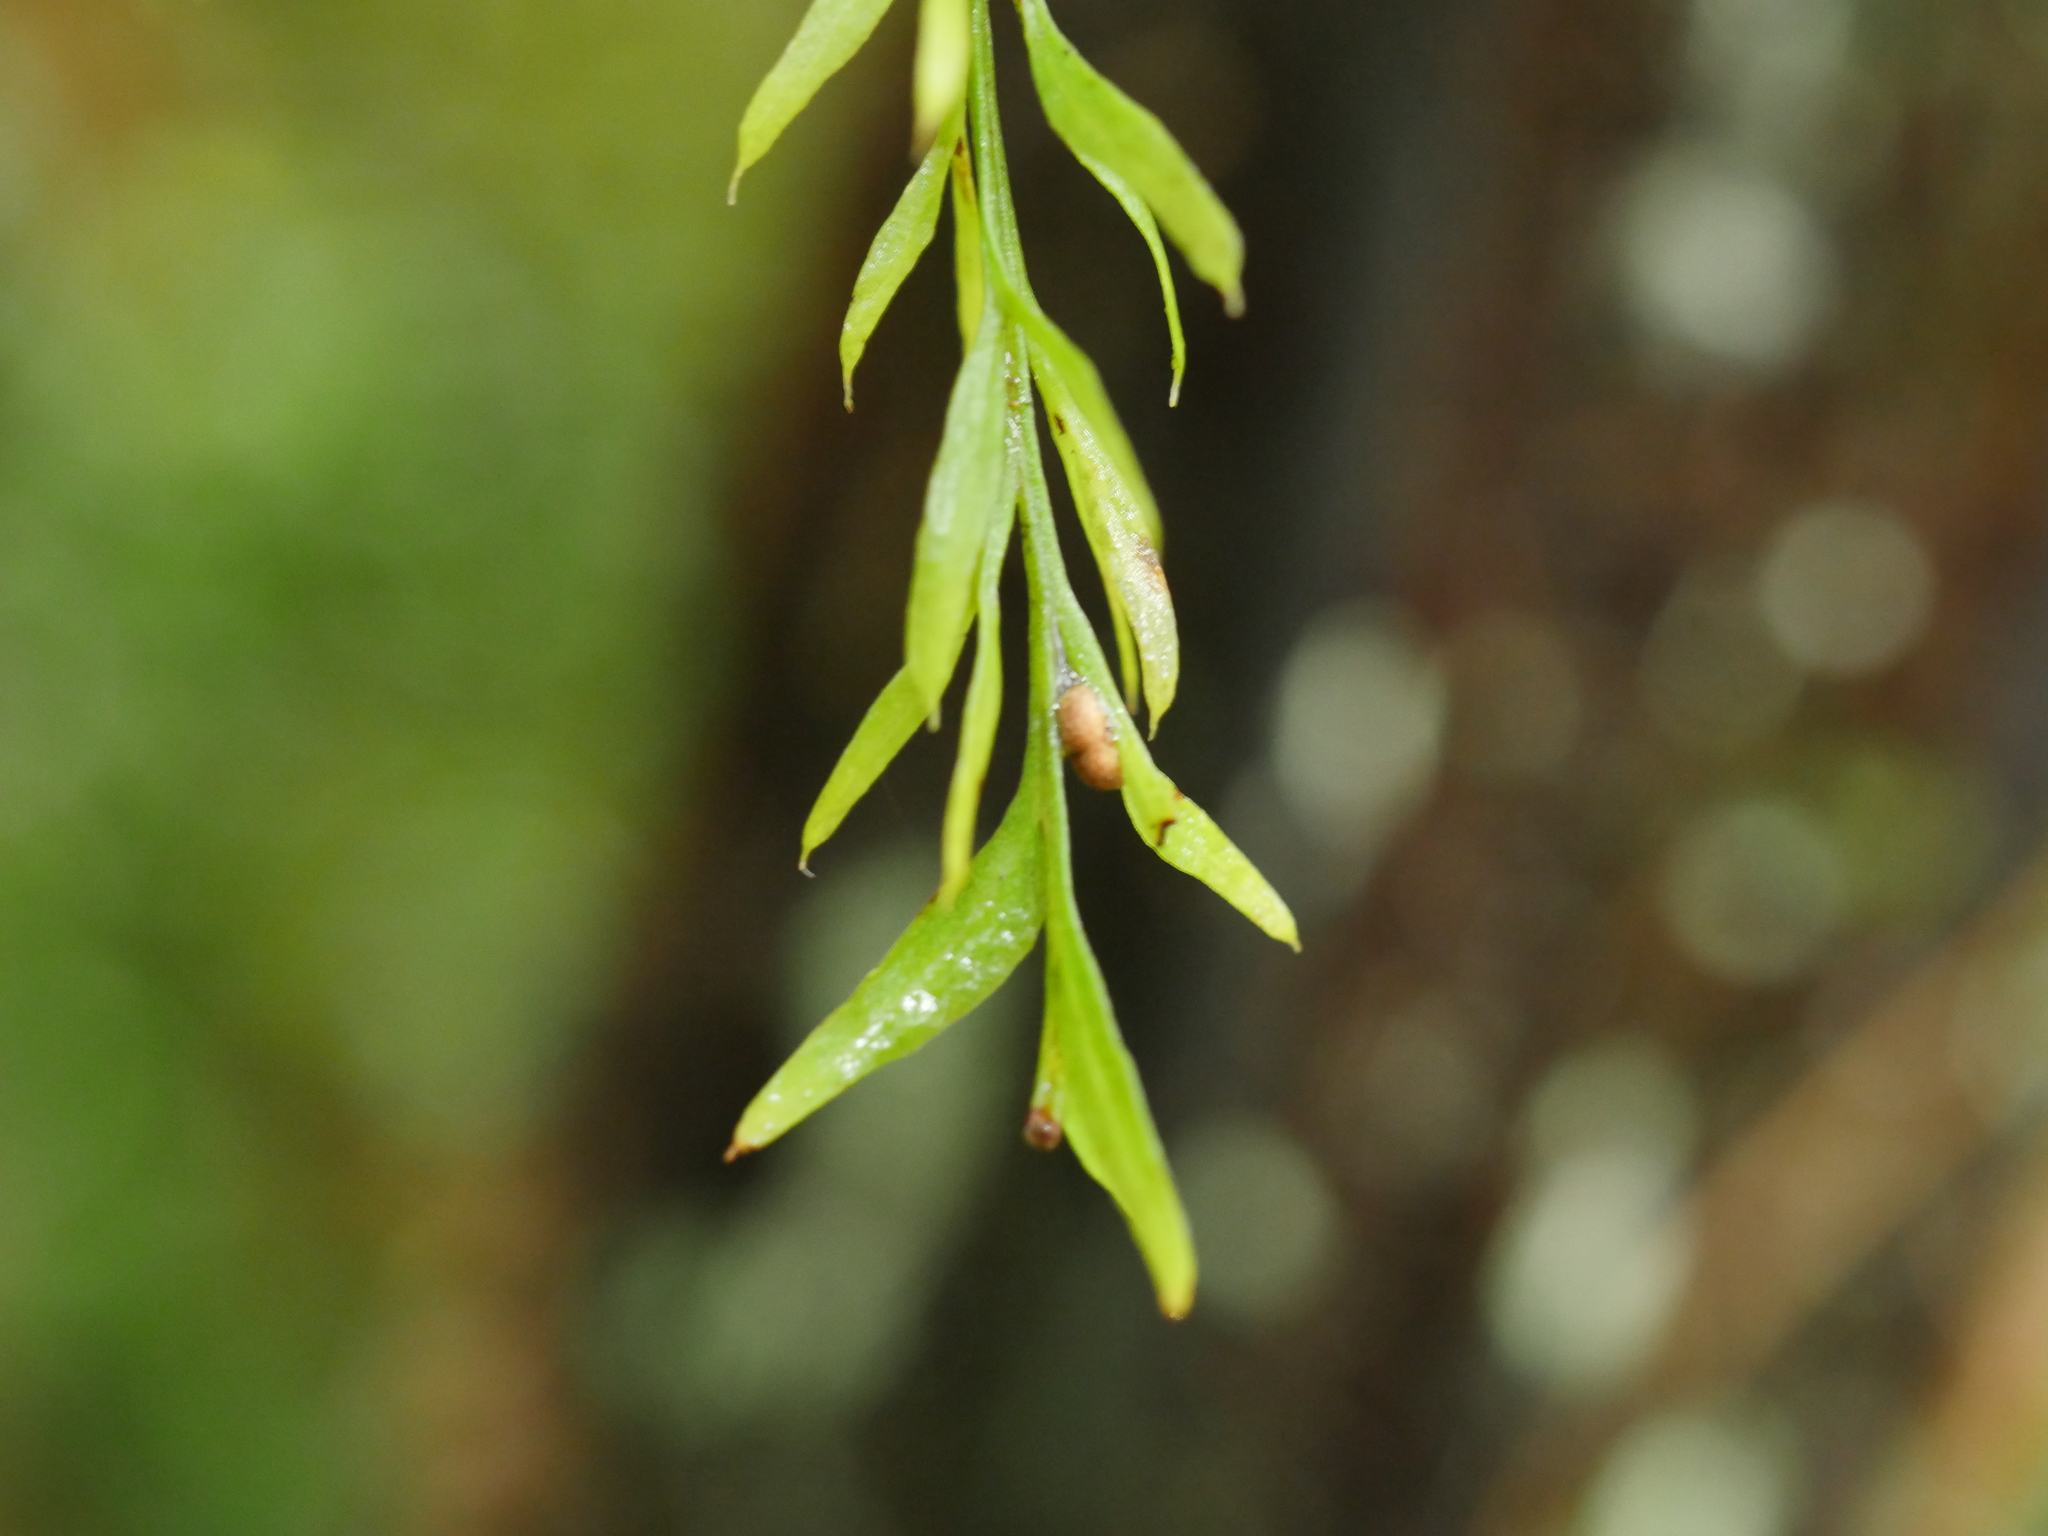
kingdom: Plantae
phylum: Tracheophyta
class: Polypodiopsida
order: Psilotales
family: Psilotaceae
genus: Tmesipteris
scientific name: Tmesipteris elongata
